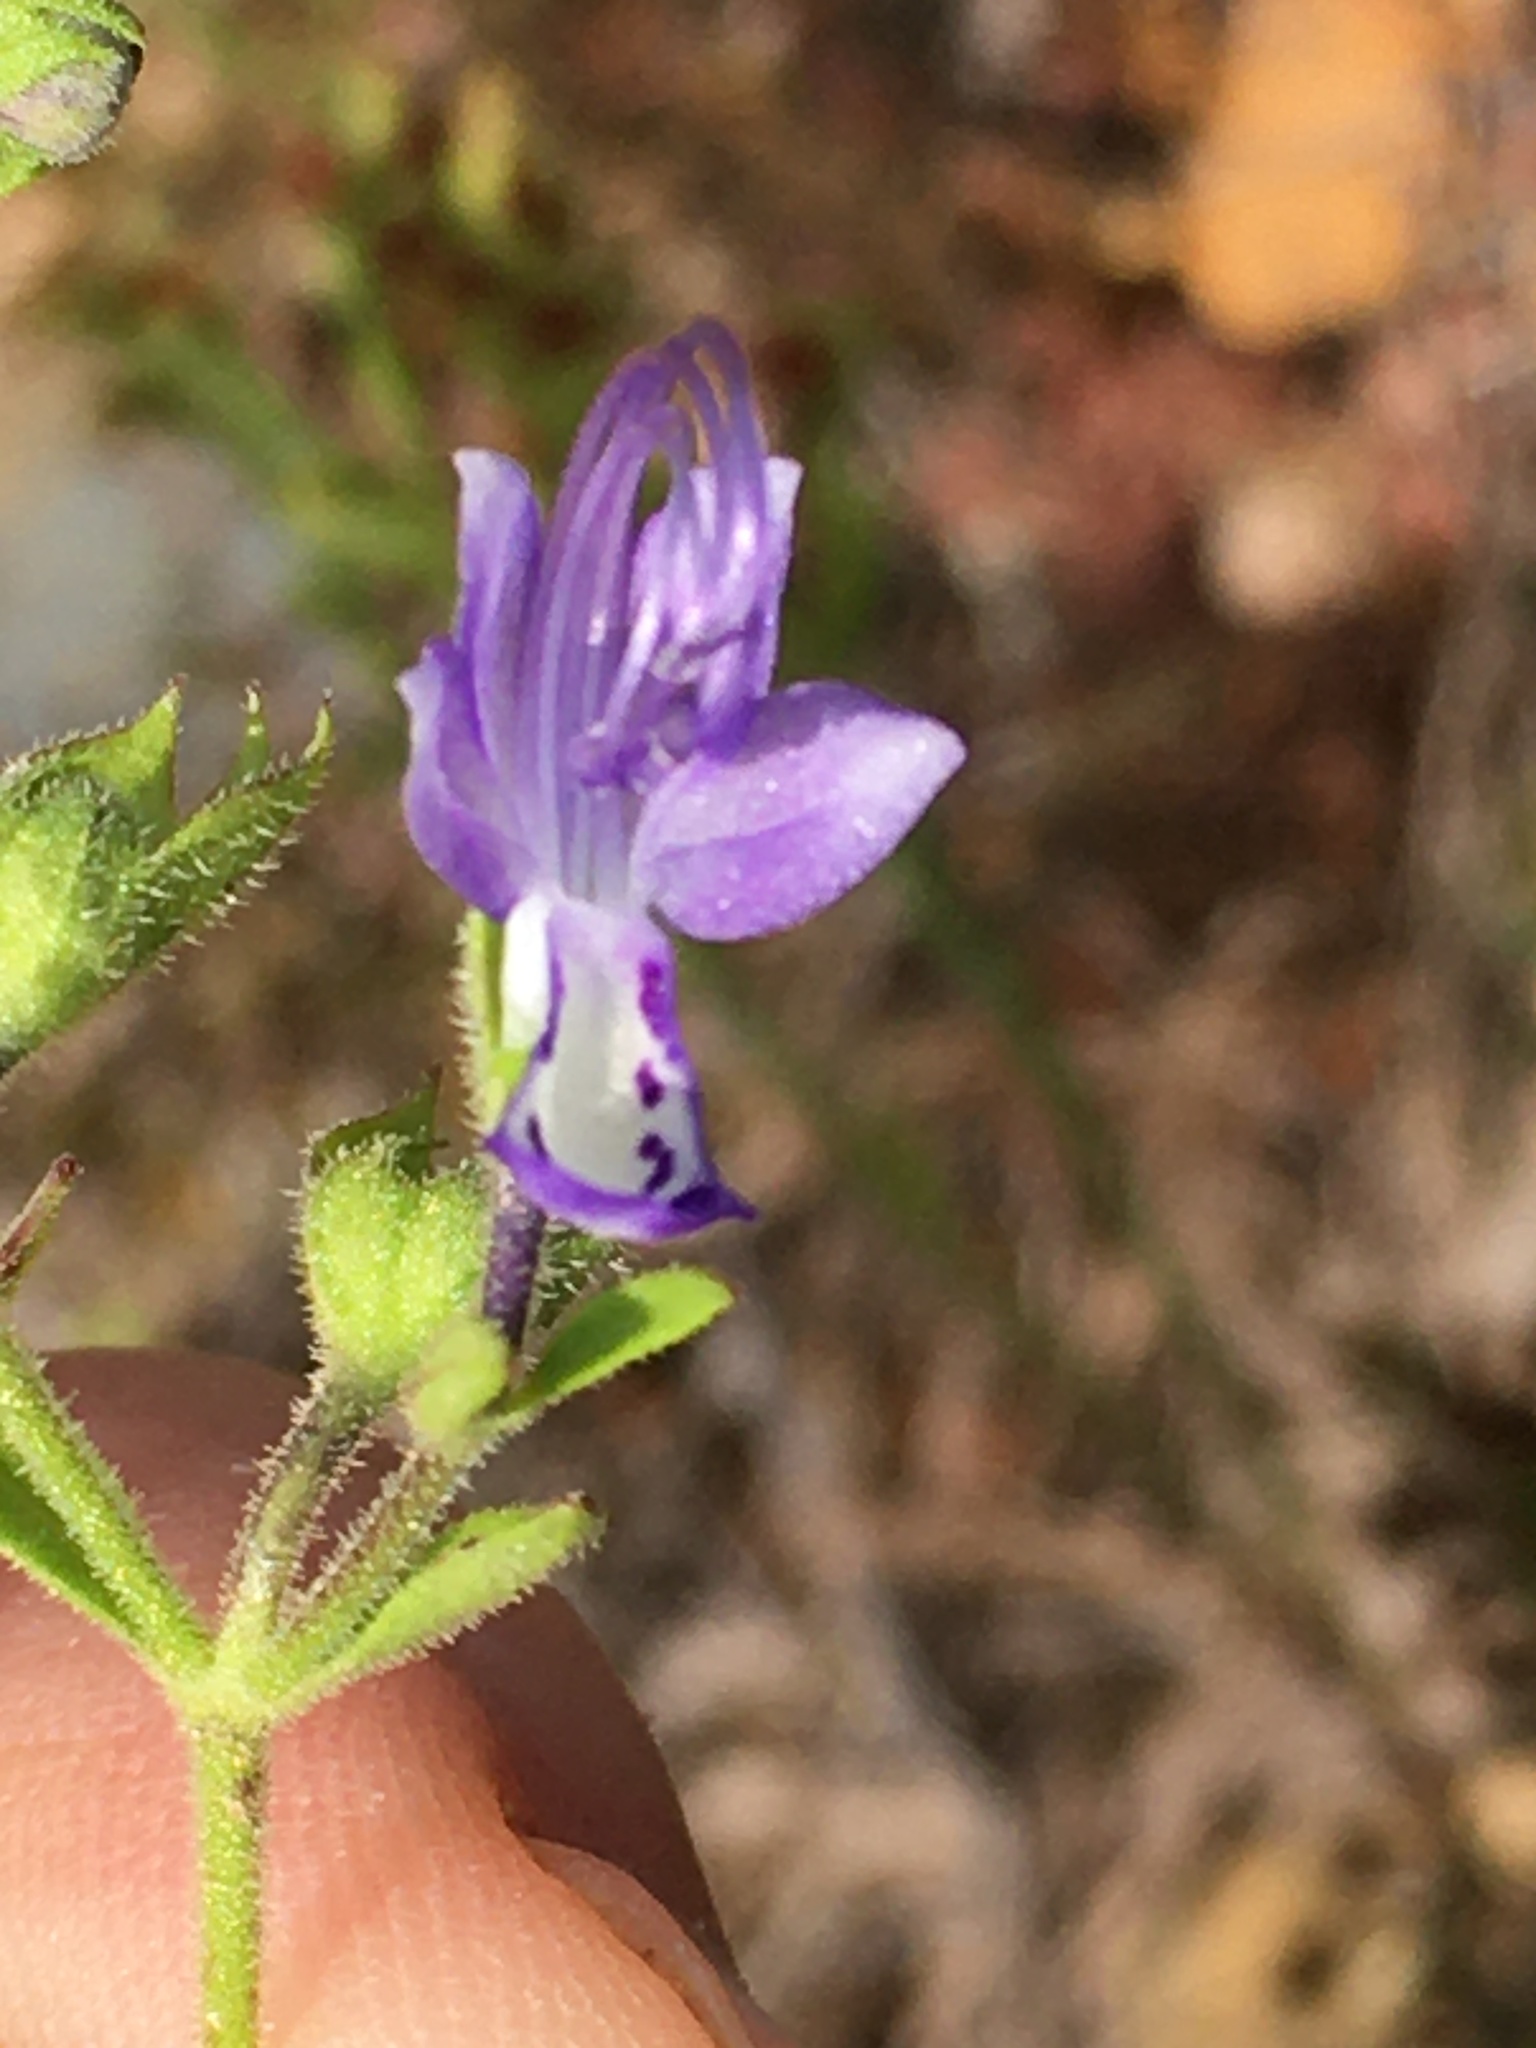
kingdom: Plantae
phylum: Tracheophyta
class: Magnoliopsida
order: Lamiales
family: Lamiaceae
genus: Trichostema
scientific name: Trichostema dichotomum
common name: Bastard pennyroyal
